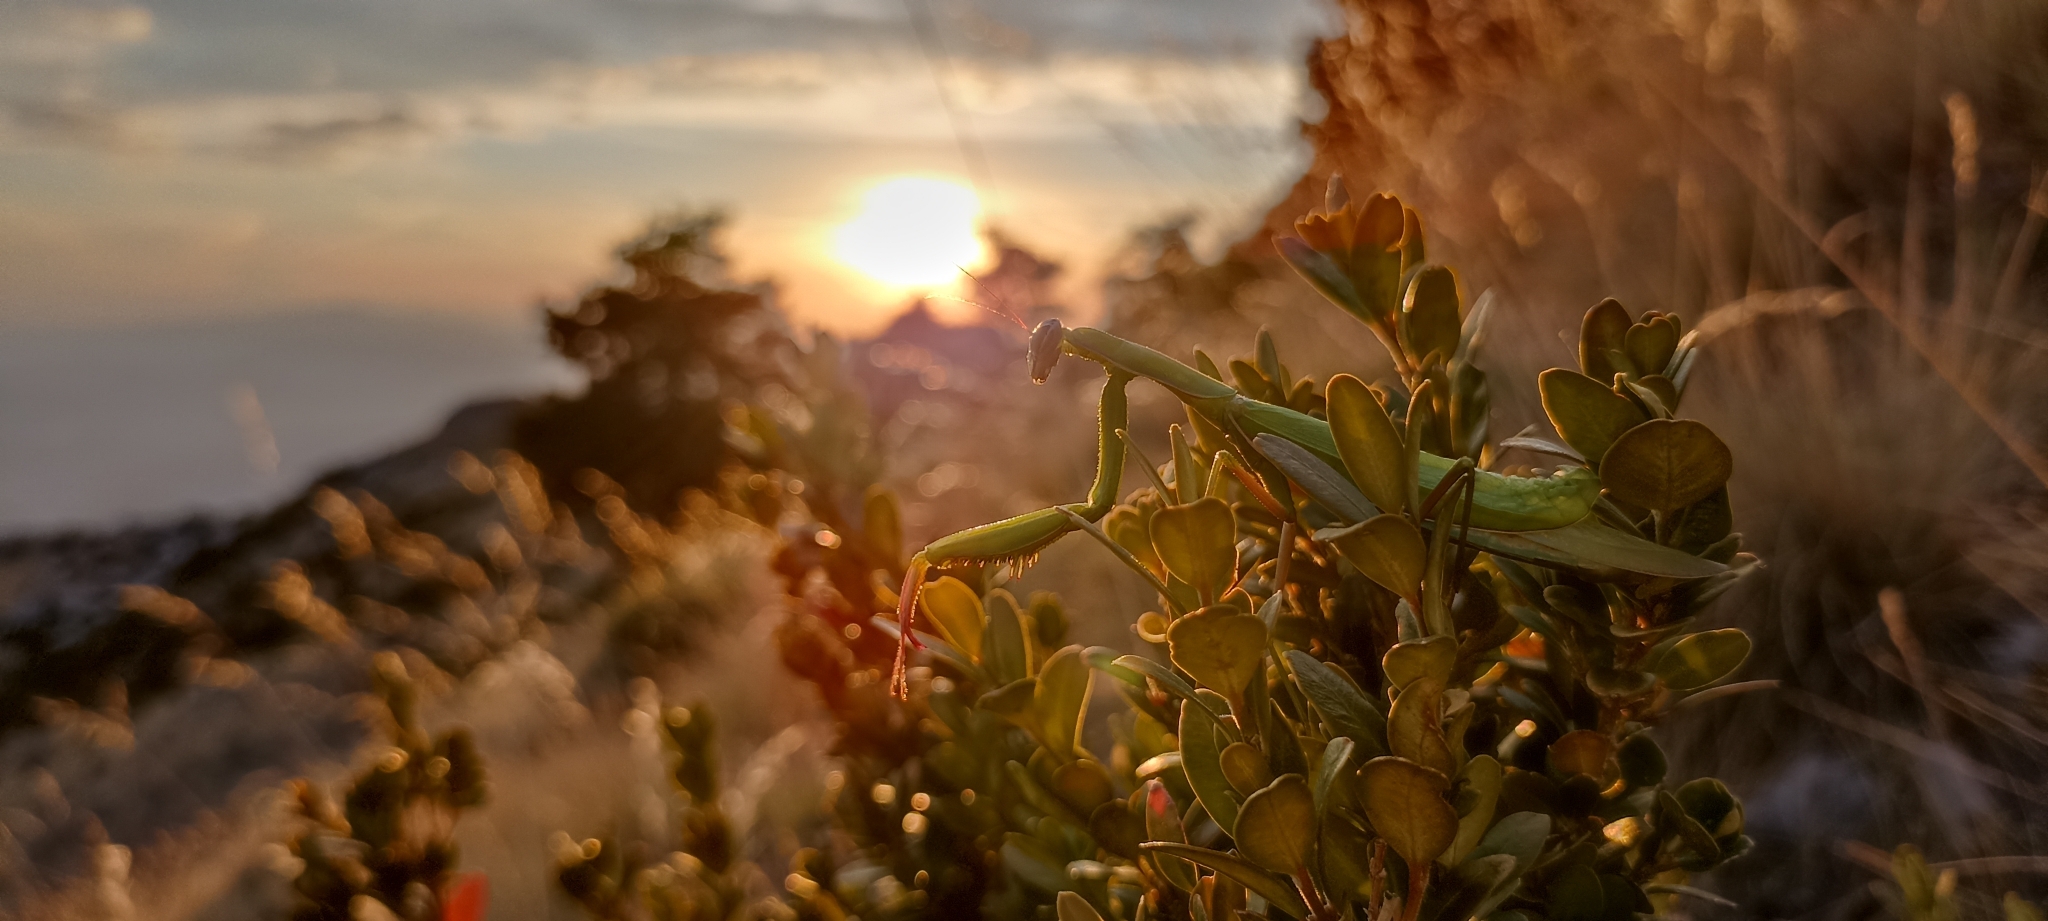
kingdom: Animalia
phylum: Arthropoda
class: Insecta
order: Mantodea
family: Mantidae
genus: Mantis
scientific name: Mantis religiosa
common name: Praying mantis
